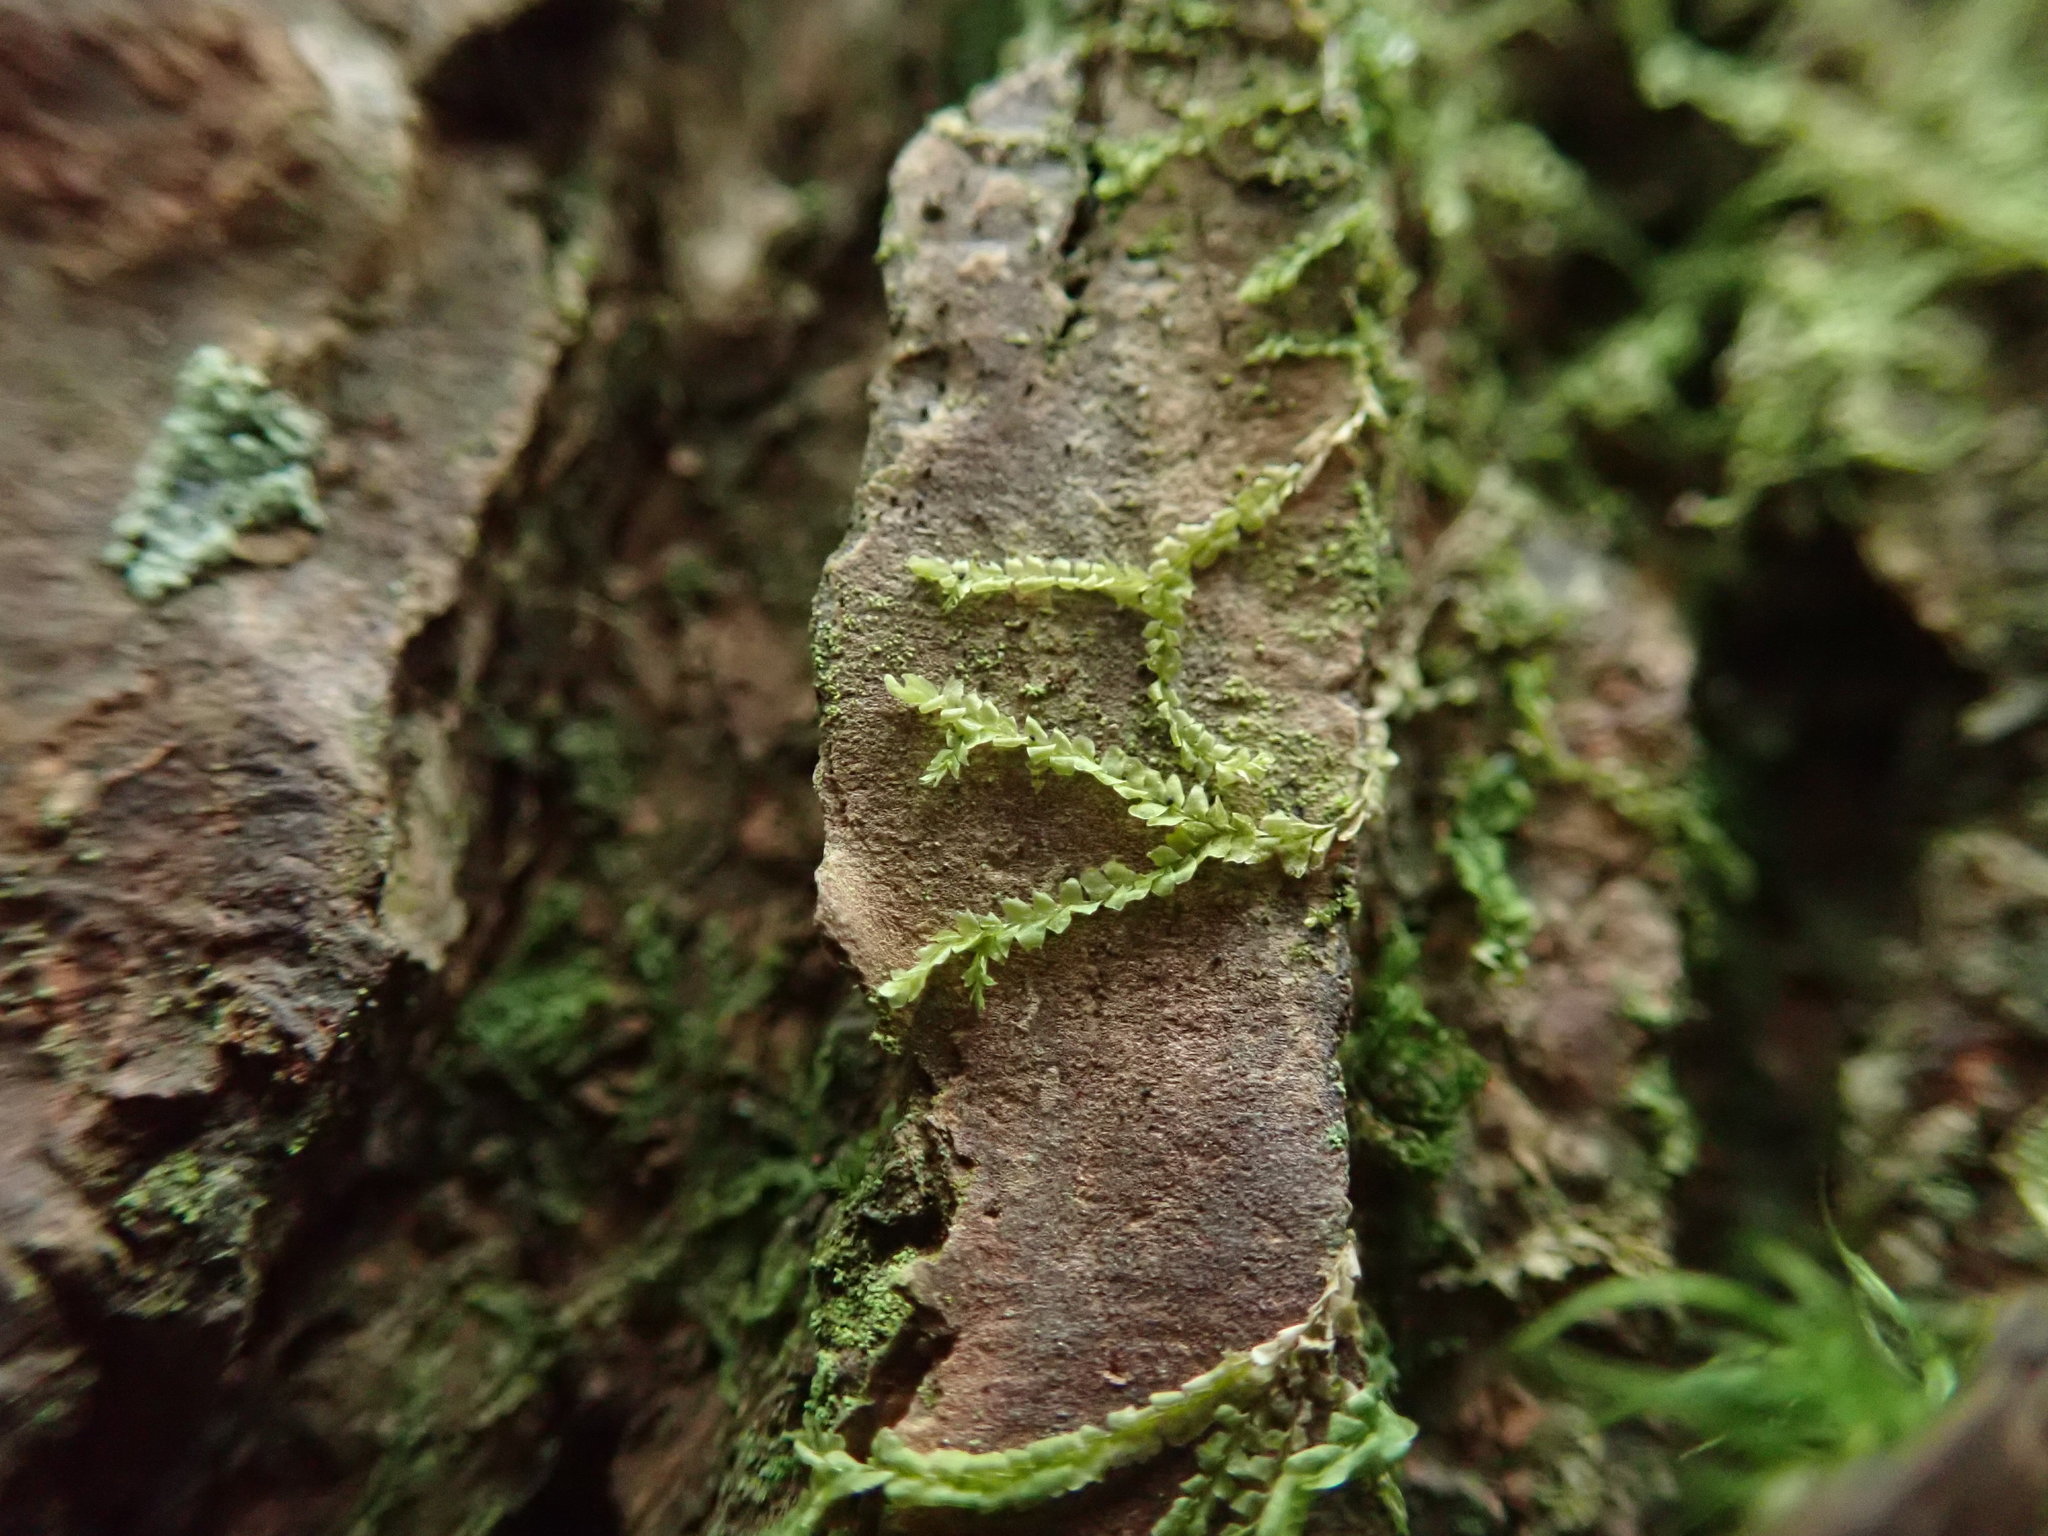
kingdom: Plantae
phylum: Marchantiophyta
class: Jungermanniopsida
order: Jungermanniales
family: Lophocoleaceae
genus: Lophocolea
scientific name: Lophocolea heterophylla
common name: Variable-leaved crestwort
